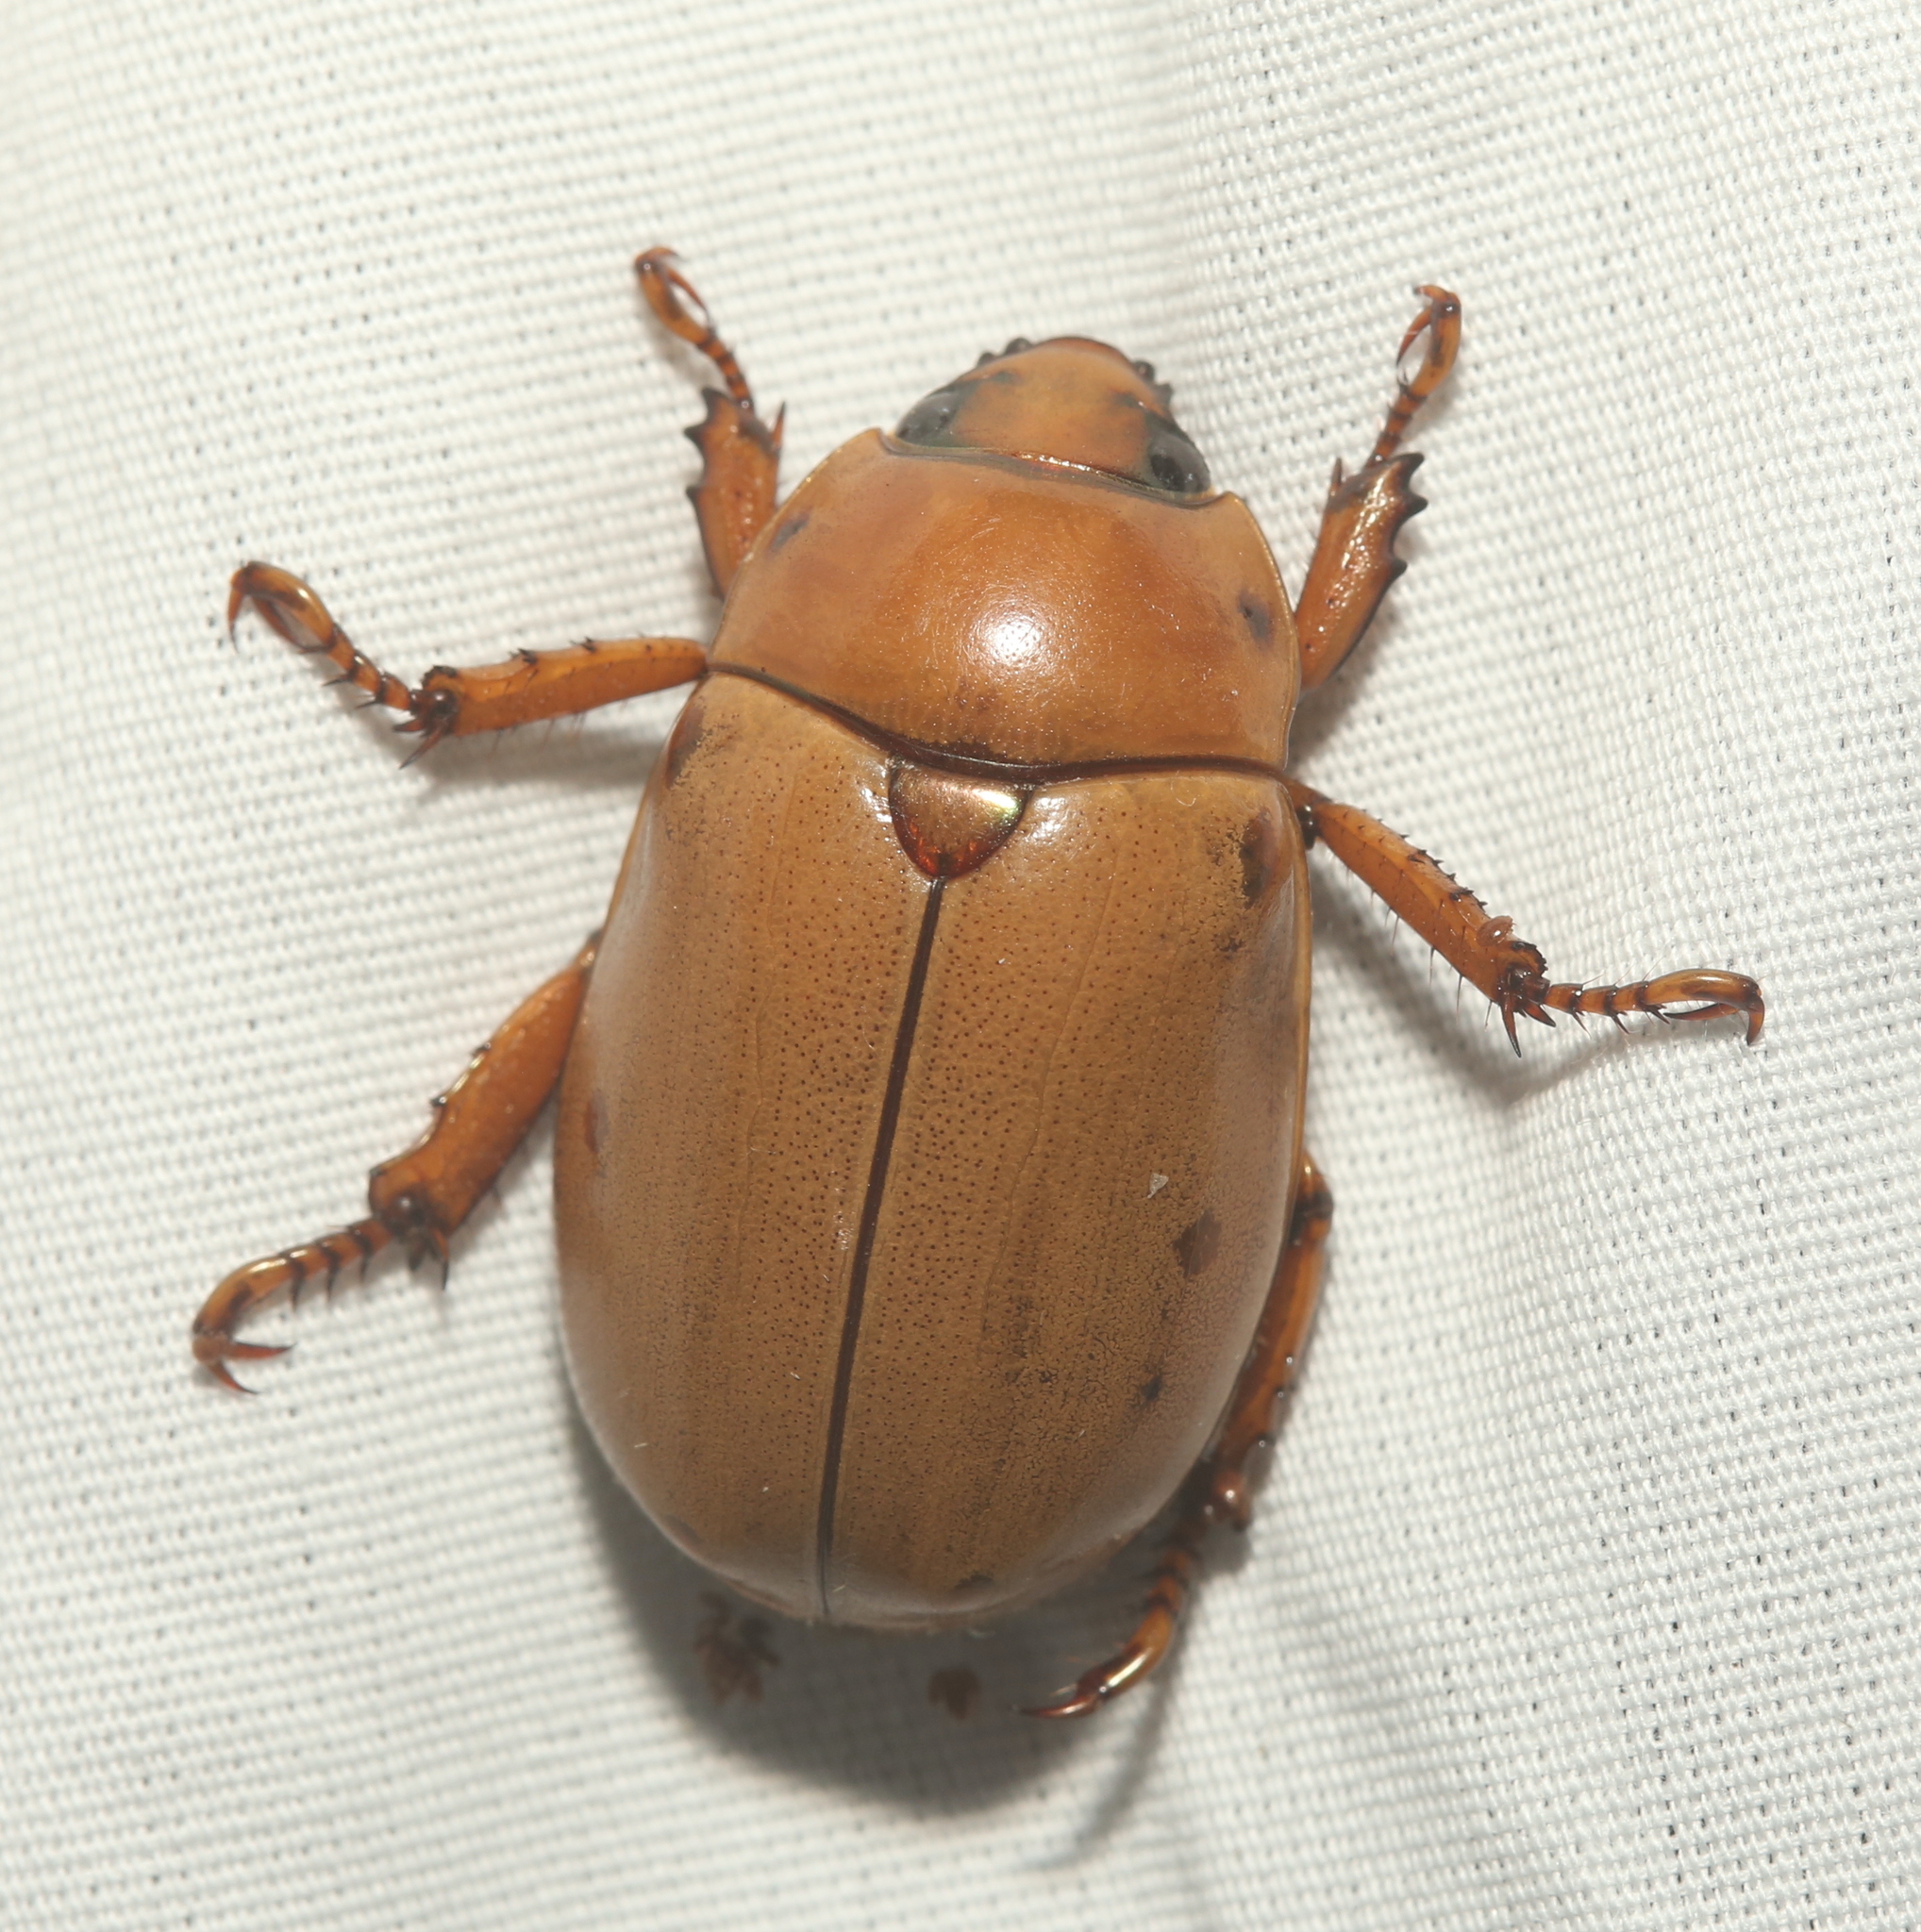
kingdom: Animalia
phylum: Arthropoda
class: Insecta
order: Coleoptera
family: Scarabaeidae
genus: Pelidnota
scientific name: Pelidnota punctata
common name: Grapevine beetle
